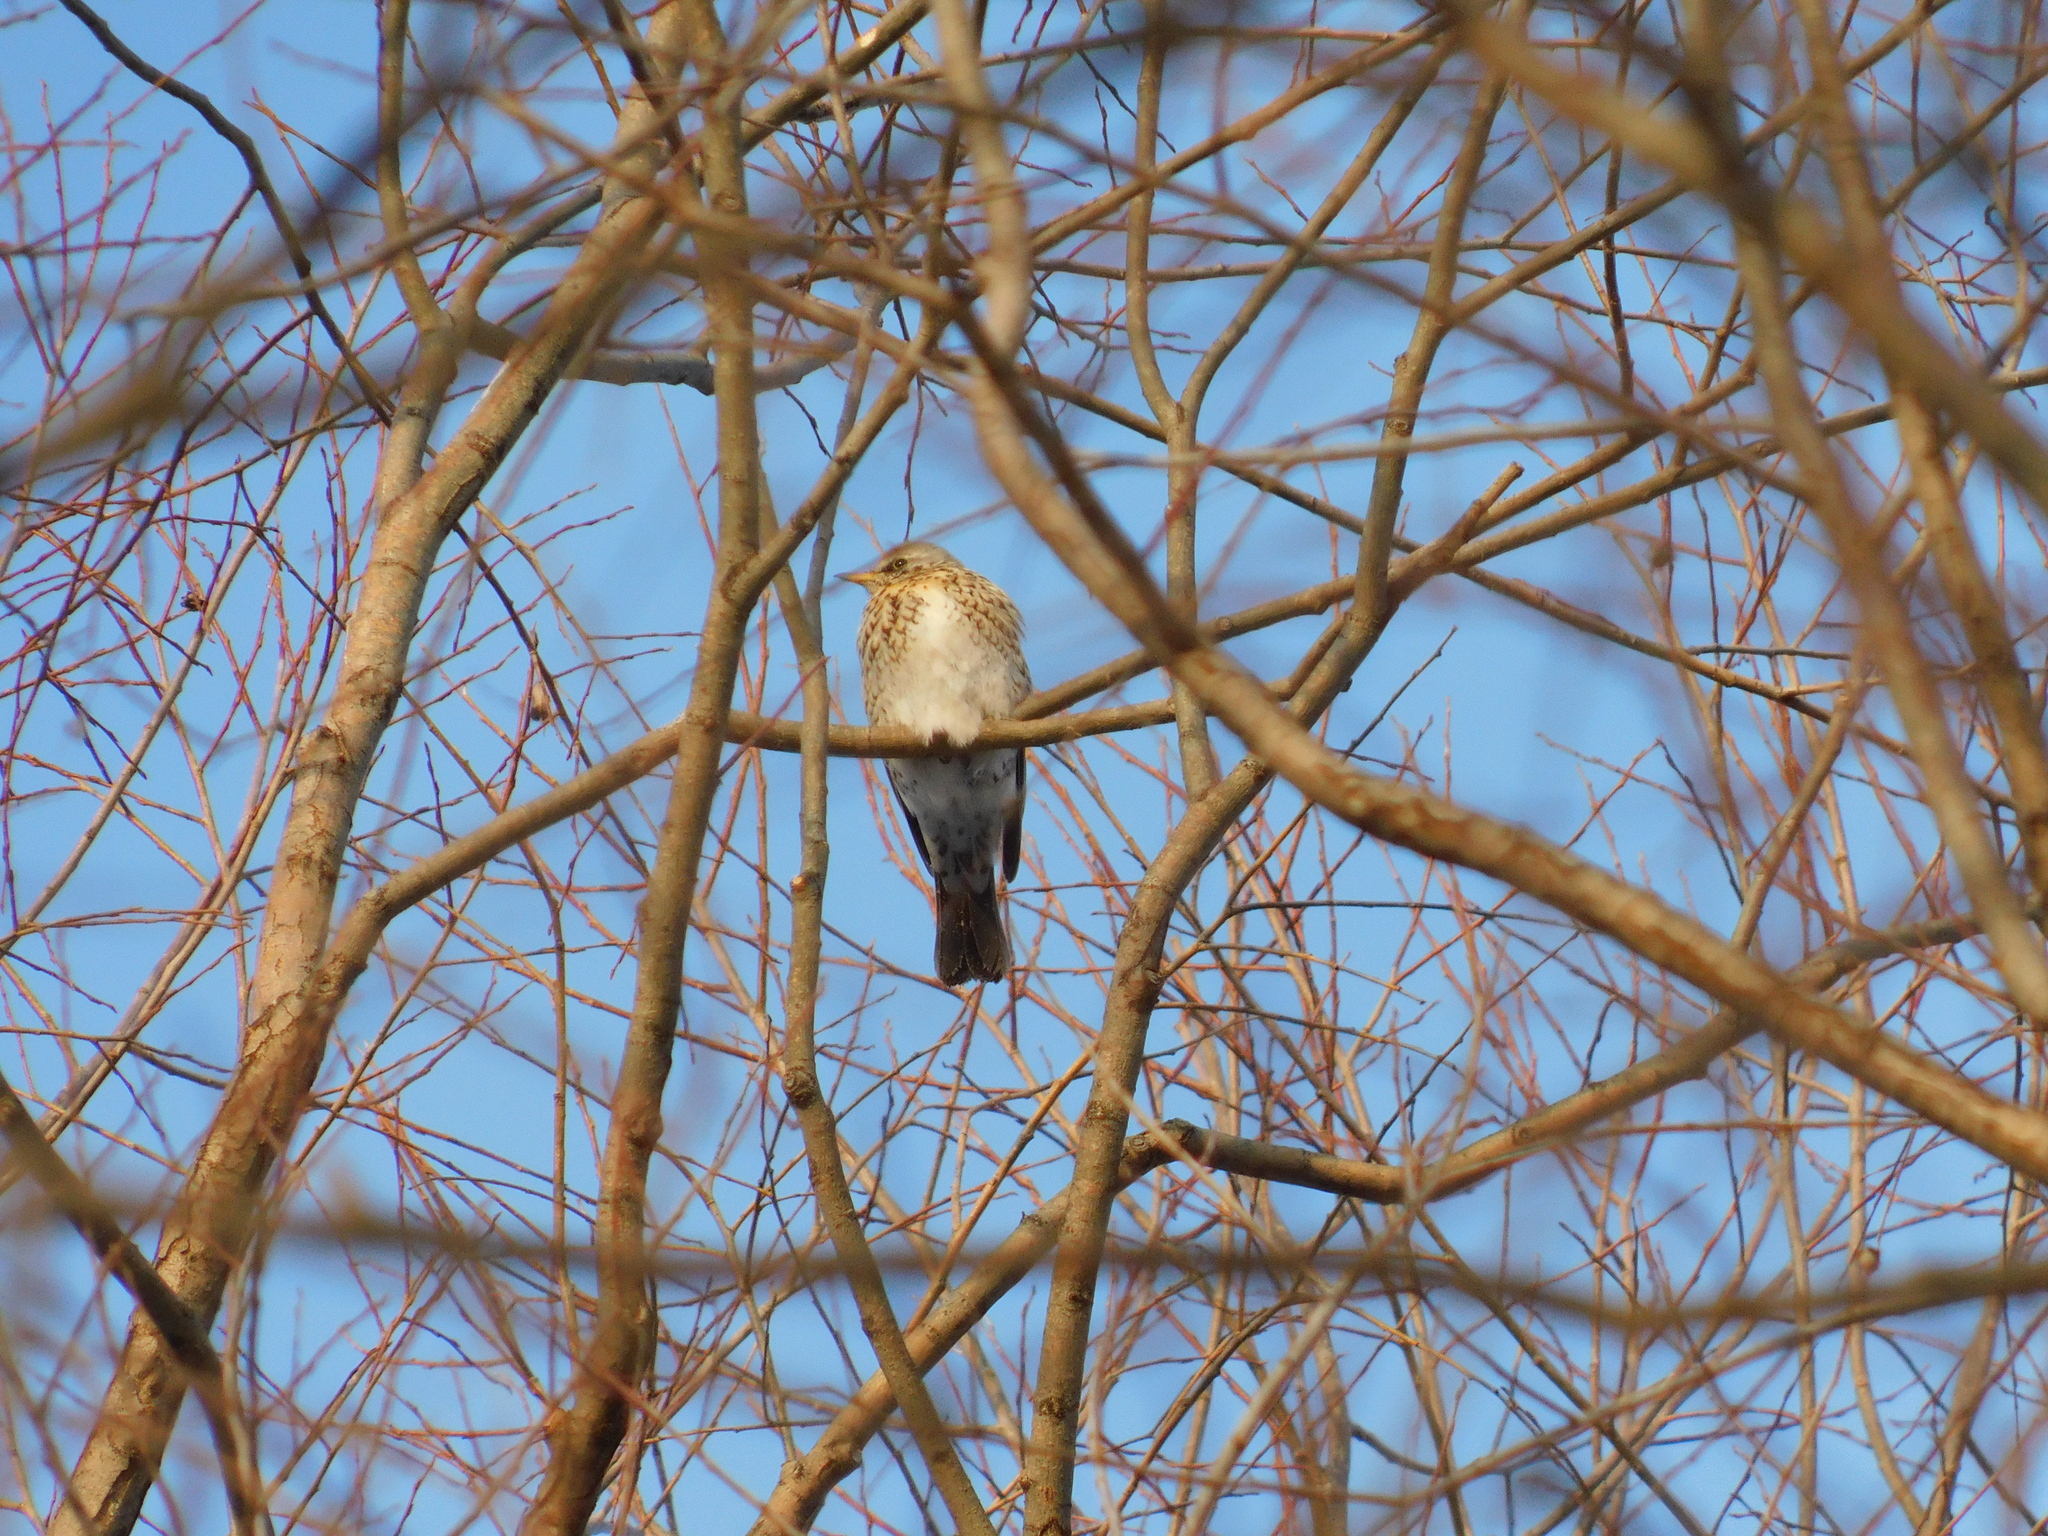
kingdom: Animalia
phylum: Chordata
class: Aves
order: Passeriformes
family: Turdidae
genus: Turdus
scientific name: Turdus pilaris
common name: Fieldfare
